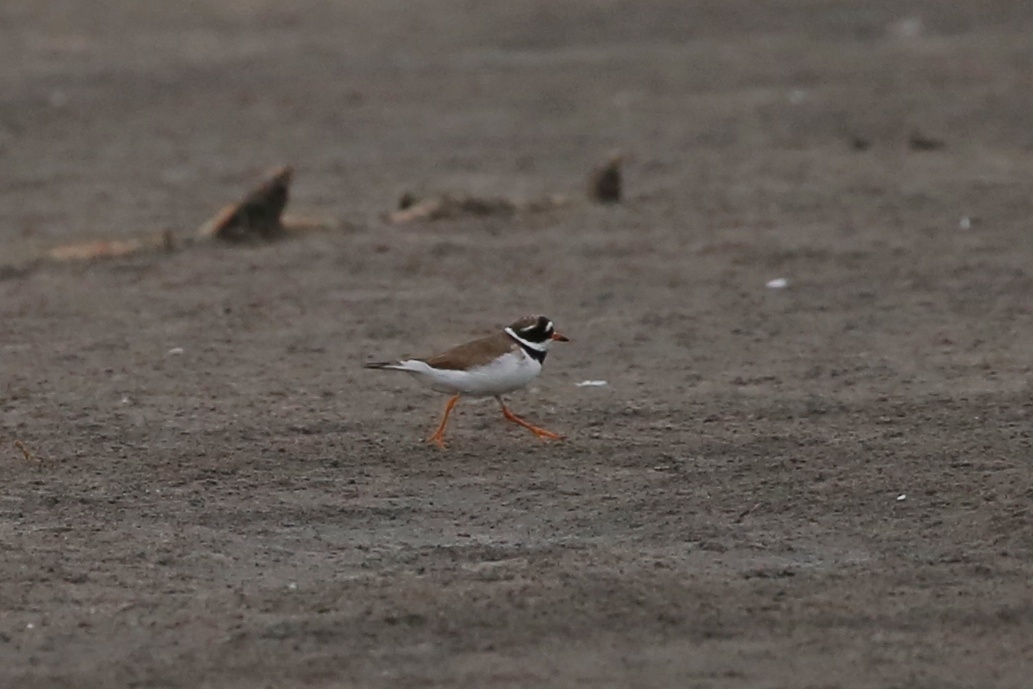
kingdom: Animalia
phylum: Chordata
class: Aves
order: Charadriiformes
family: Charadriidae
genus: Charadrius
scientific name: Charadrius hiaticula
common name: Common ringed plover
